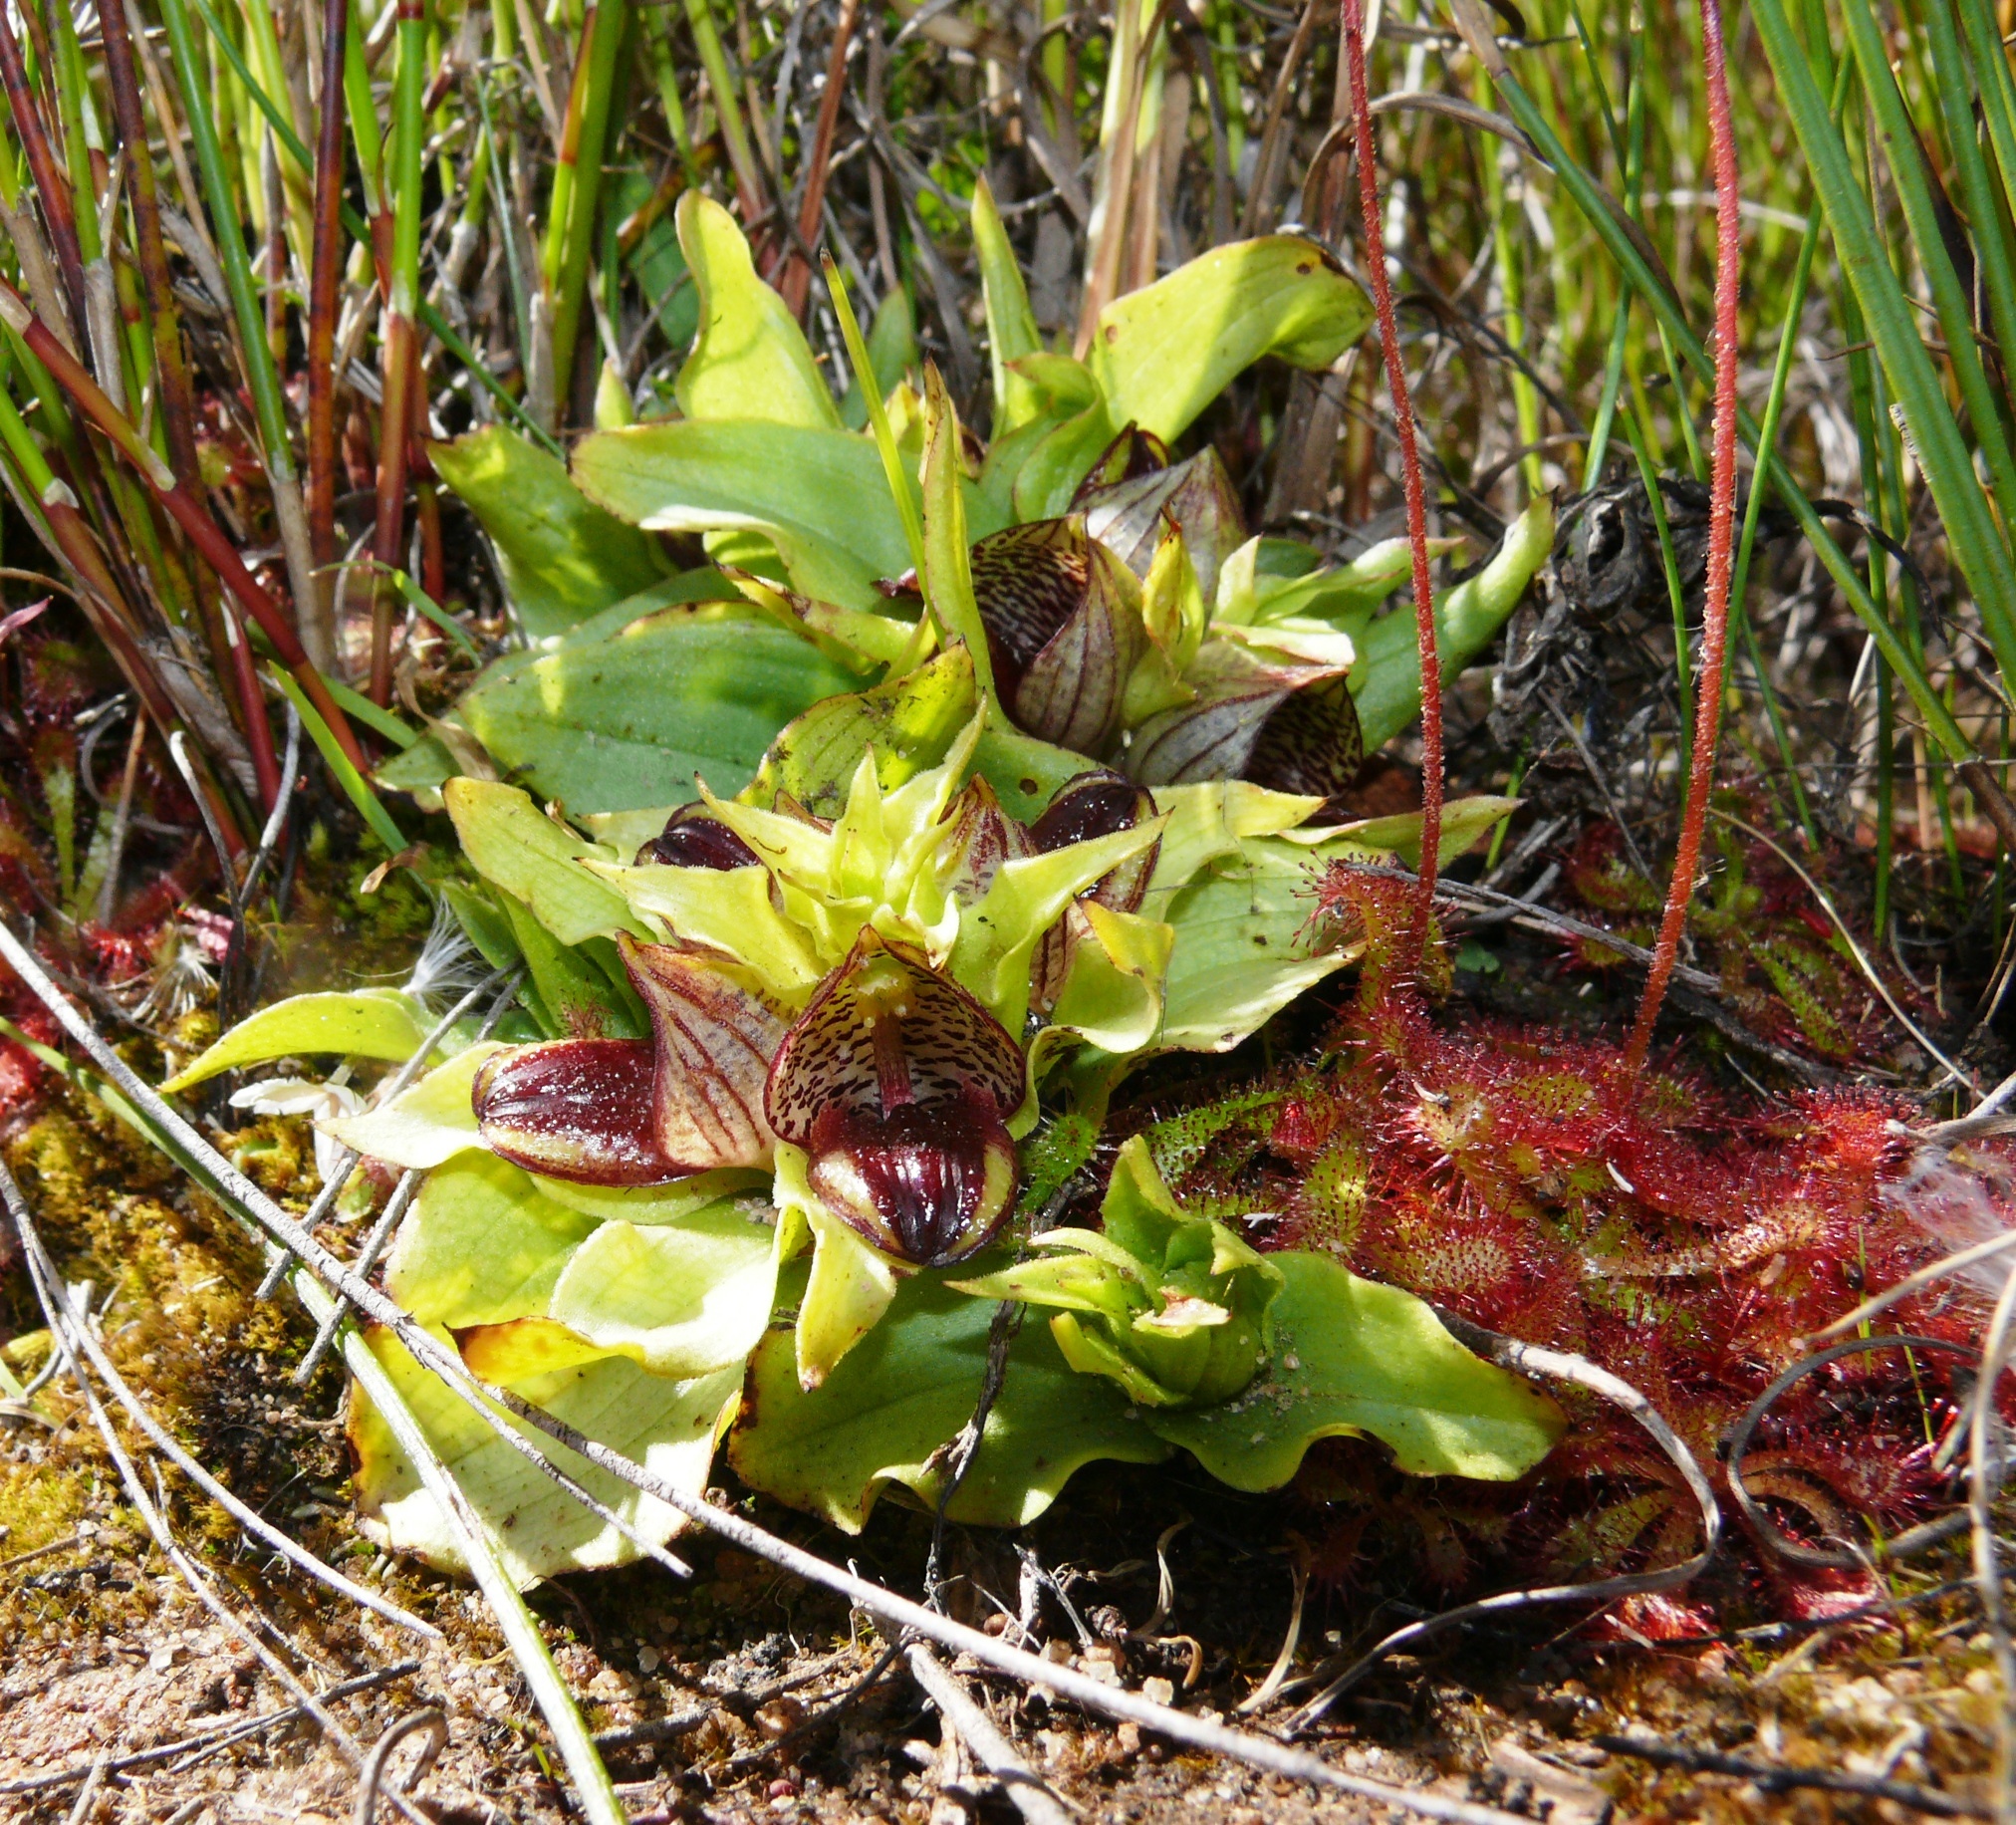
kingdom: Plantae
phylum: Tracheophyta
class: Liliopsida
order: Asparagales
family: Orchidaceae
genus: Satyrium
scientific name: Satyrium pumilum
